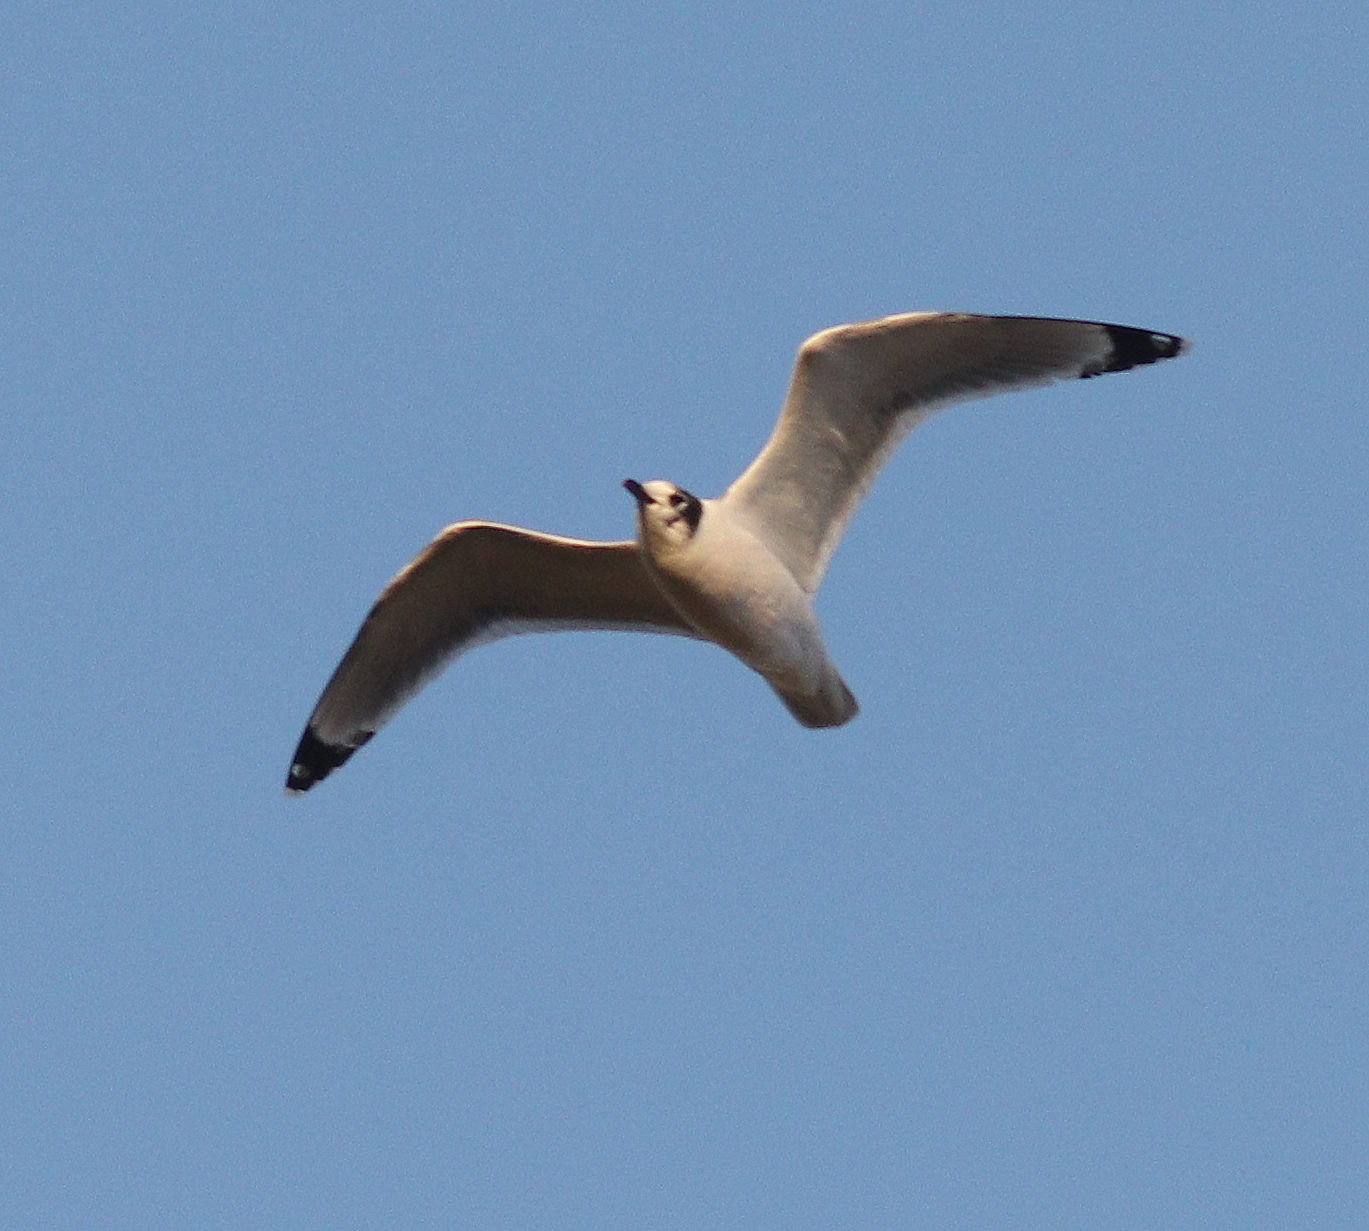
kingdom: Animalia
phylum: Chordata
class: Aves
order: Charadriiformes
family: Laridae
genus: Leucophaeus
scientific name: Leucophaeus pipixcan
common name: Franklin's gull
